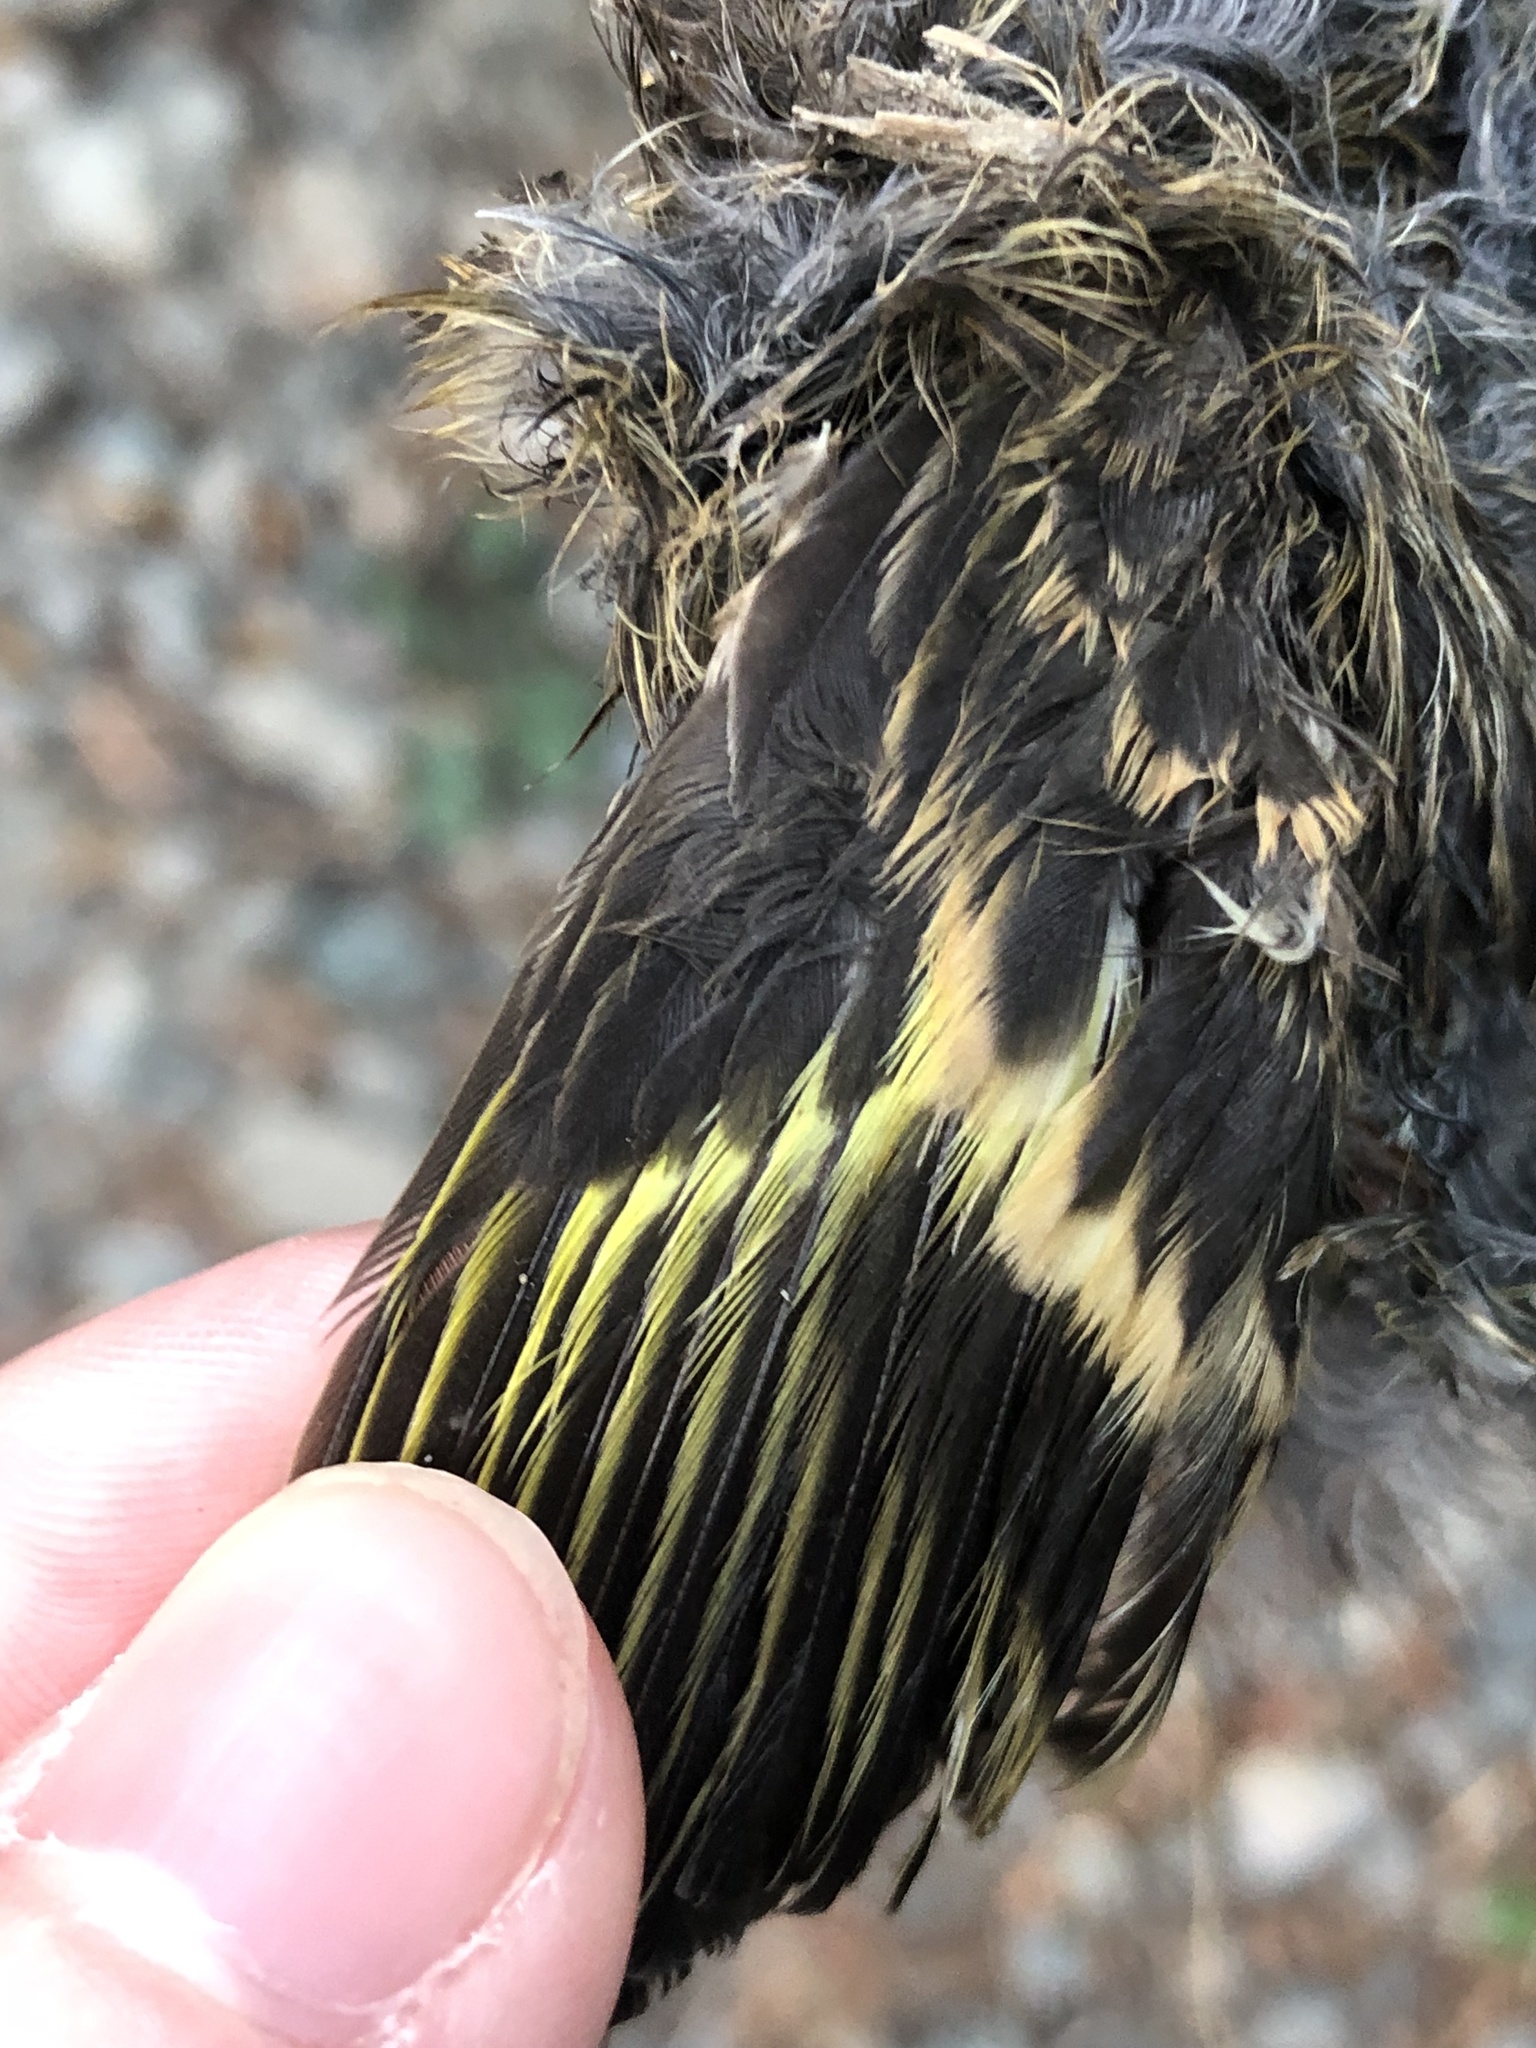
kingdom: Animalia
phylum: Chordata
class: Aves
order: Passeriformes
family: Fringillidae
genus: Spinus
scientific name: Spinus pinus
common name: Pine siskin
